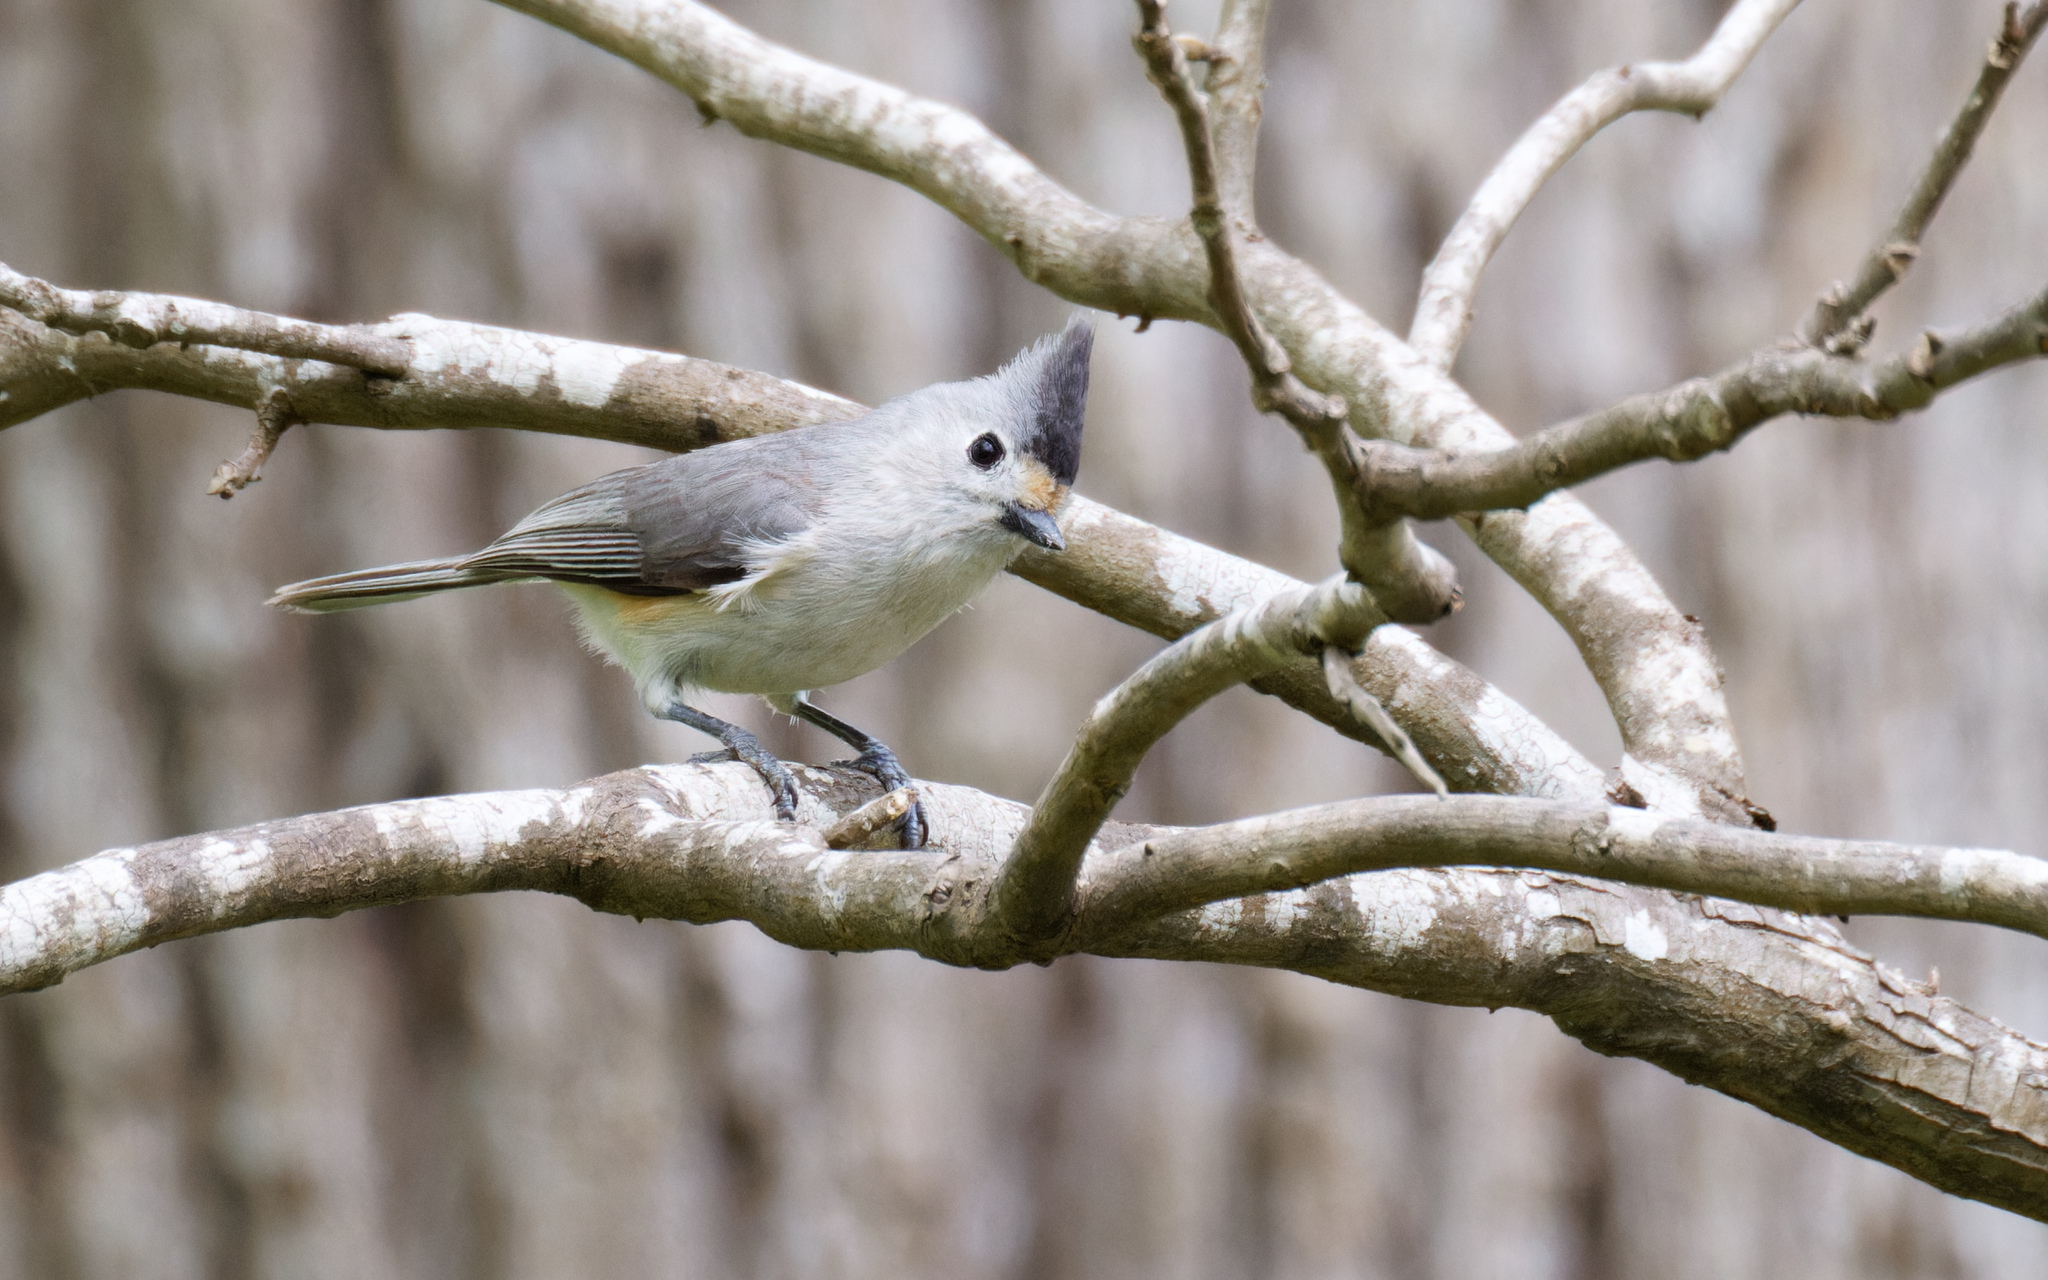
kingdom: Animalia
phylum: Chordata
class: Aves
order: Passeriformes
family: Paridae
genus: Baeolophus
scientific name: Baeolophus atricristatus
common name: Black-crested titmouse
